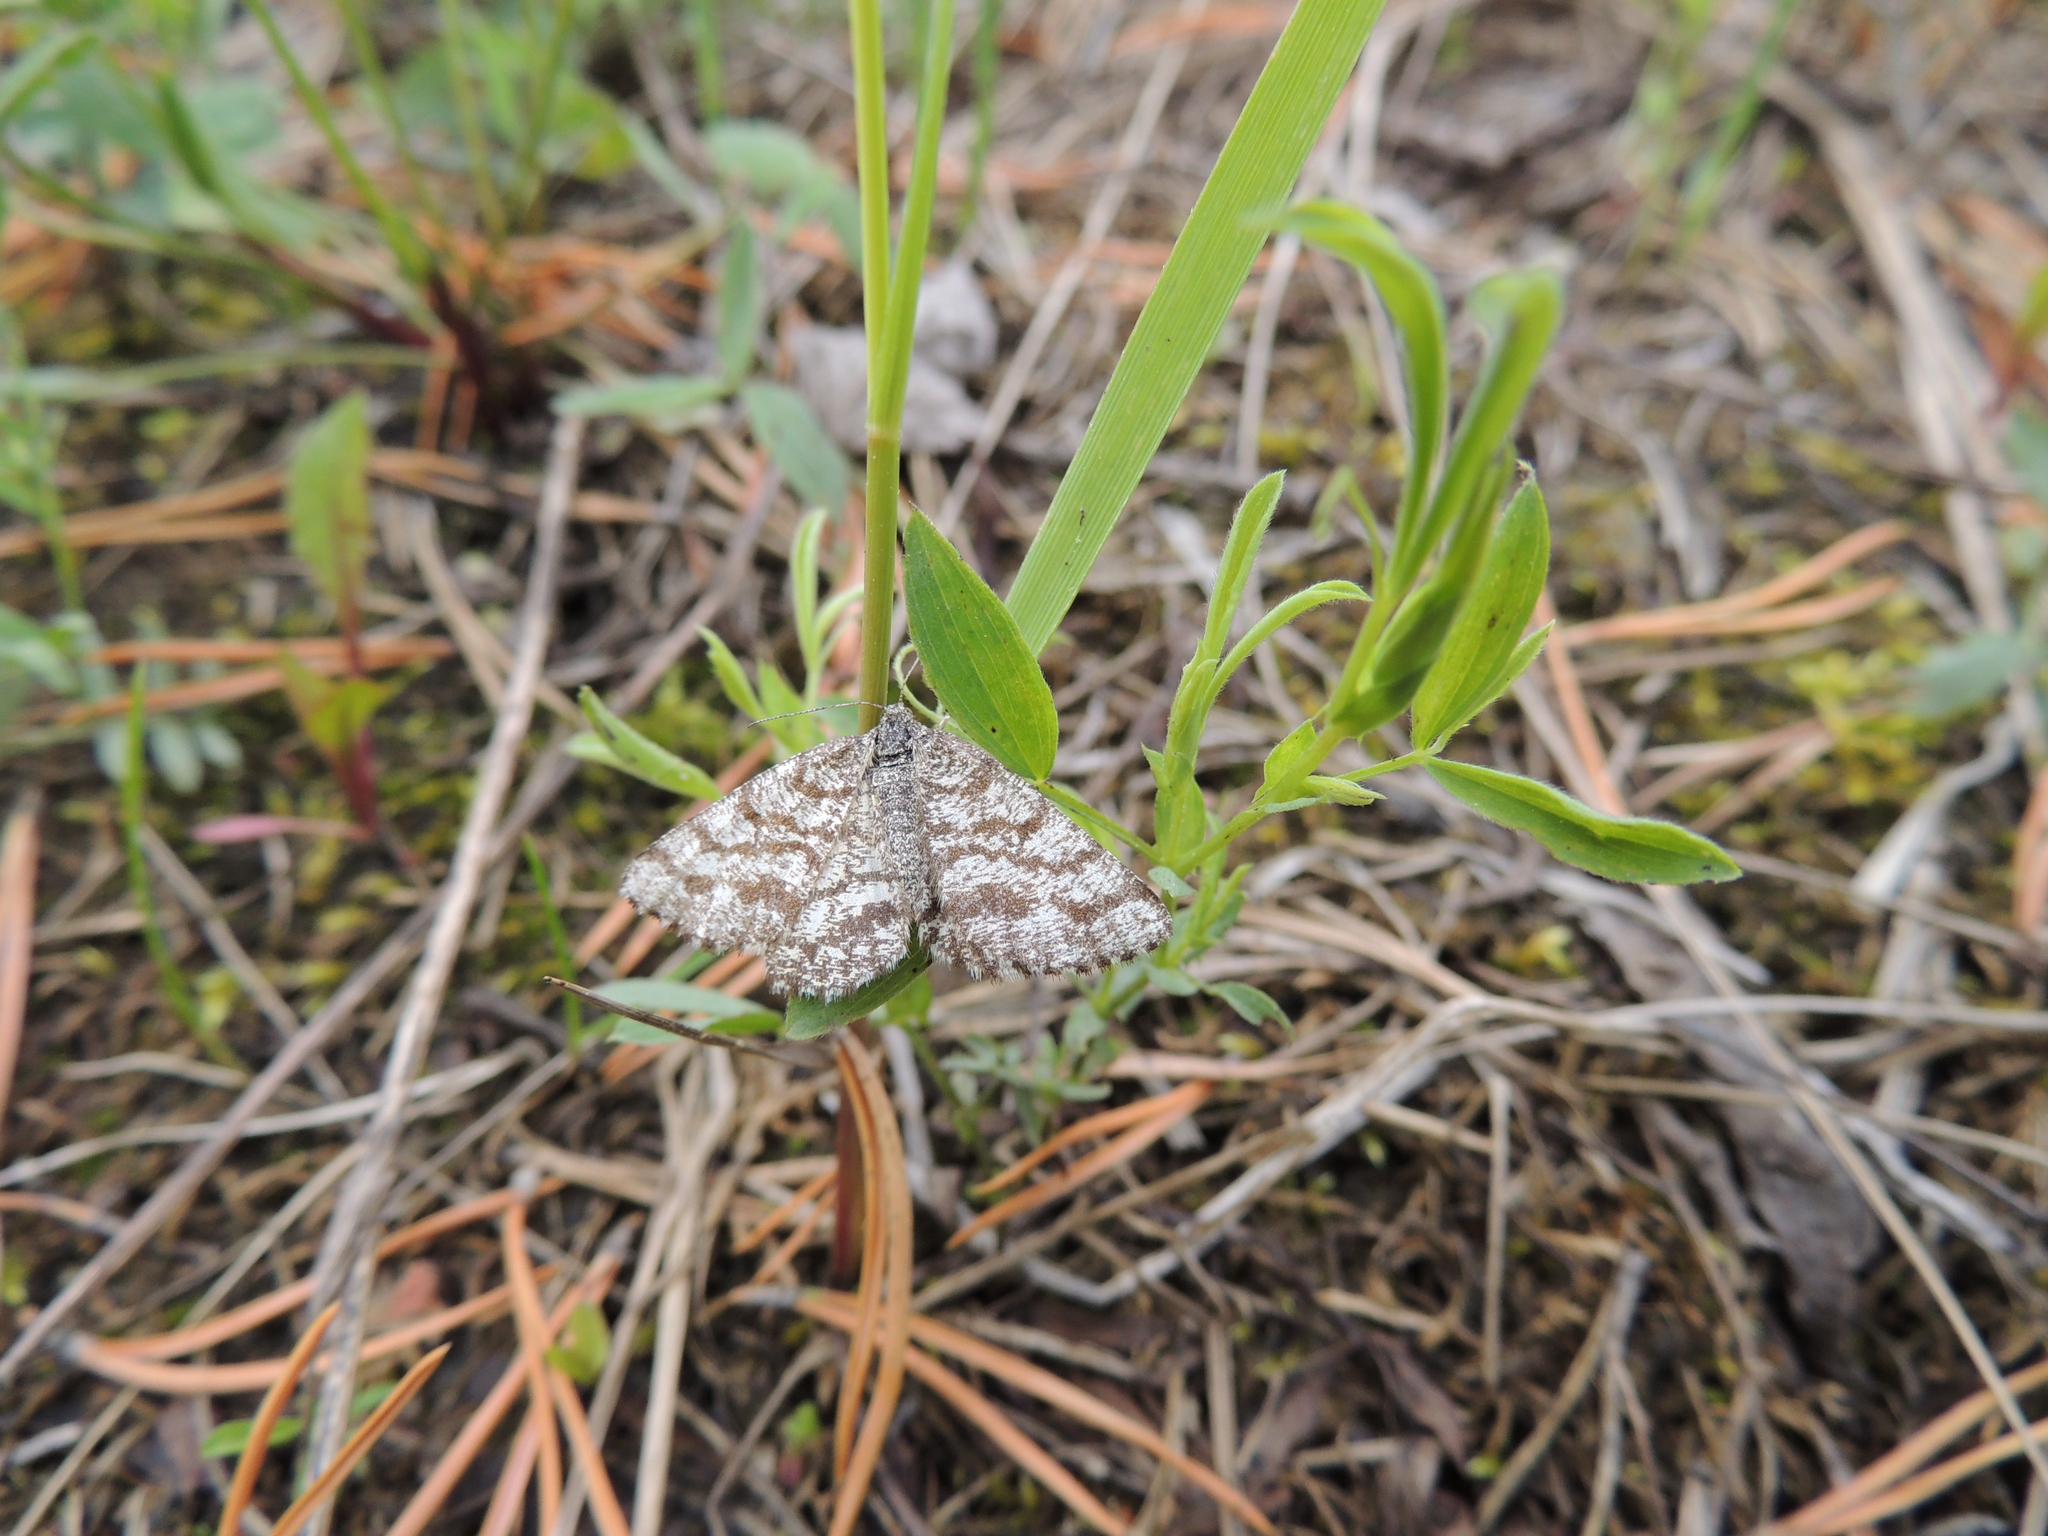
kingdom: Animalia
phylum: Arthropoda
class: Insecta
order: Lepidoptera
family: Geometridae
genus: Ematurga
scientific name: Ematurga atomaria
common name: Common heath
